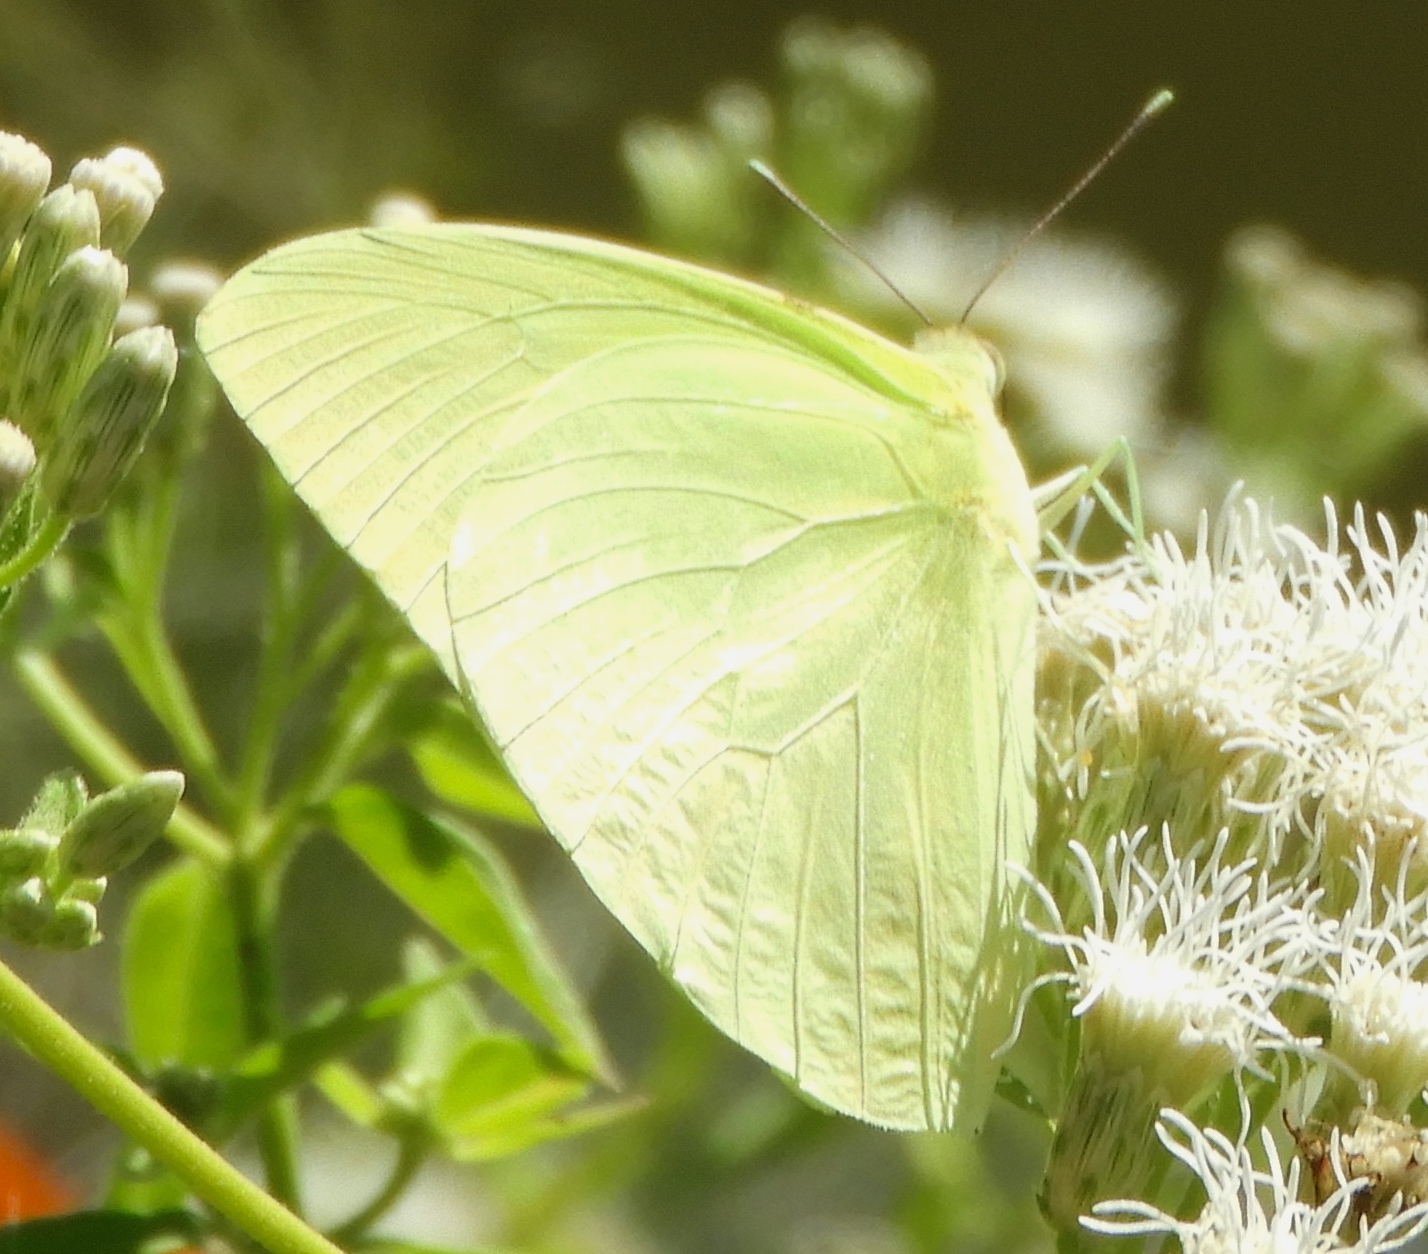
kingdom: Animalia
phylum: Arthropoda
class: Insecta
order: Lepidoptera
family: Pieridae
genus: Aphrissa
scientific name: Aphrissa statira
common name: Statira sulphur
